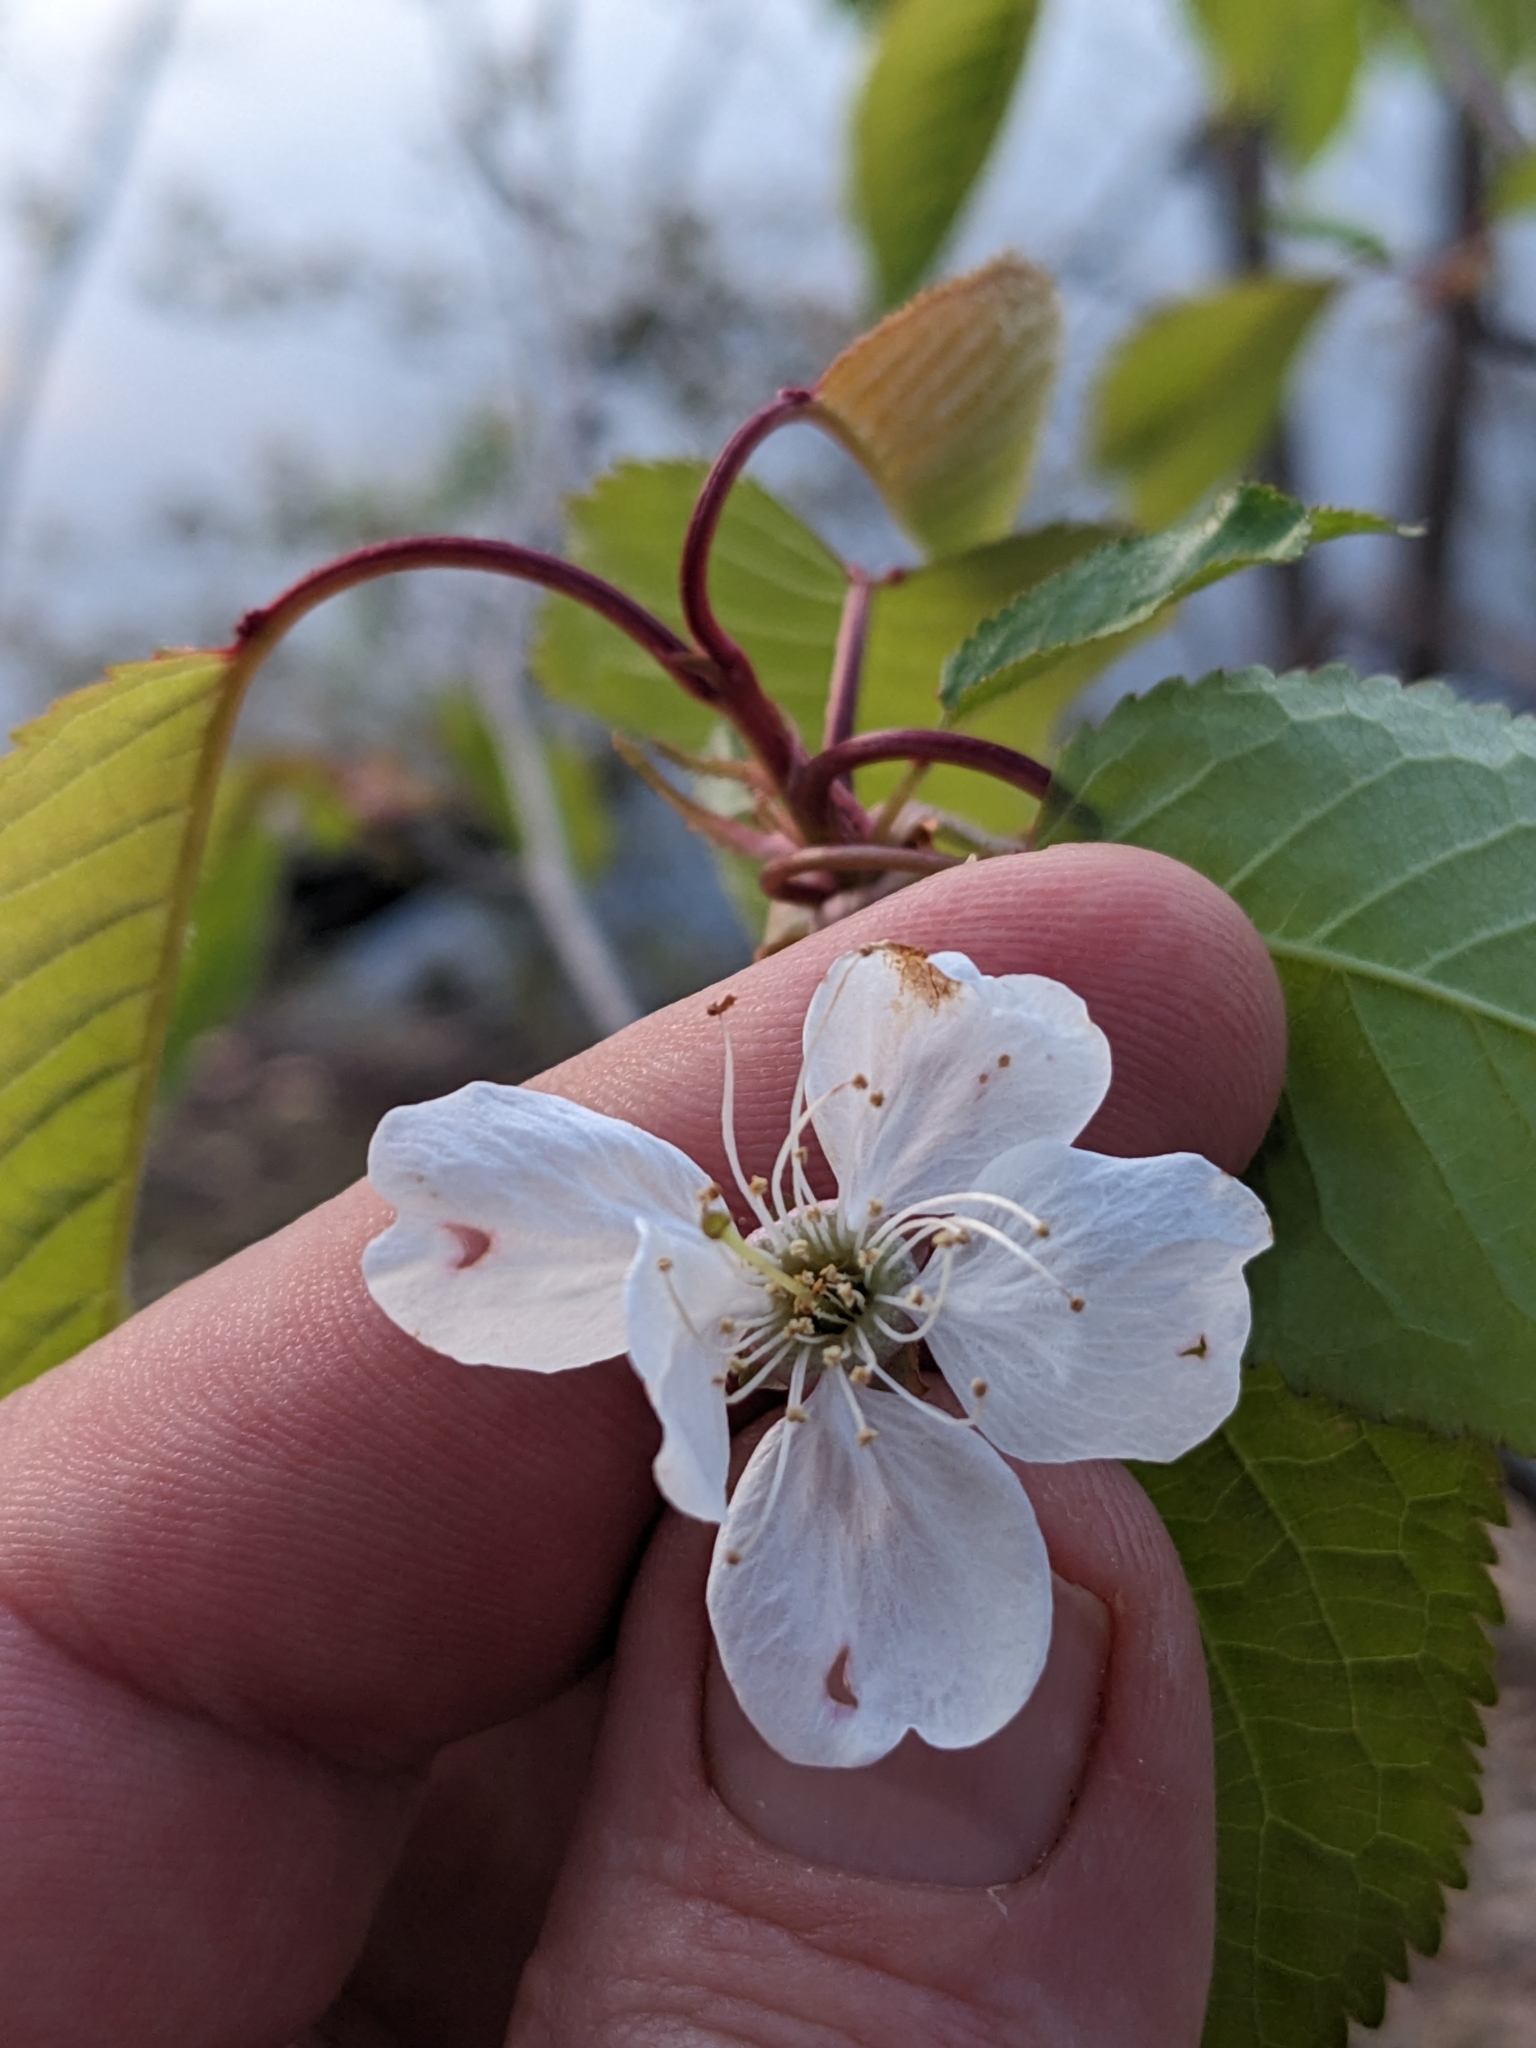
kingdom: Plantae
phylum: Tracheophyta
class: Magnoliopsida
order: Rosales
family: Rosaceae
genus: Prunus
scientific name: Prunus avium
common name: Sweet cherry
